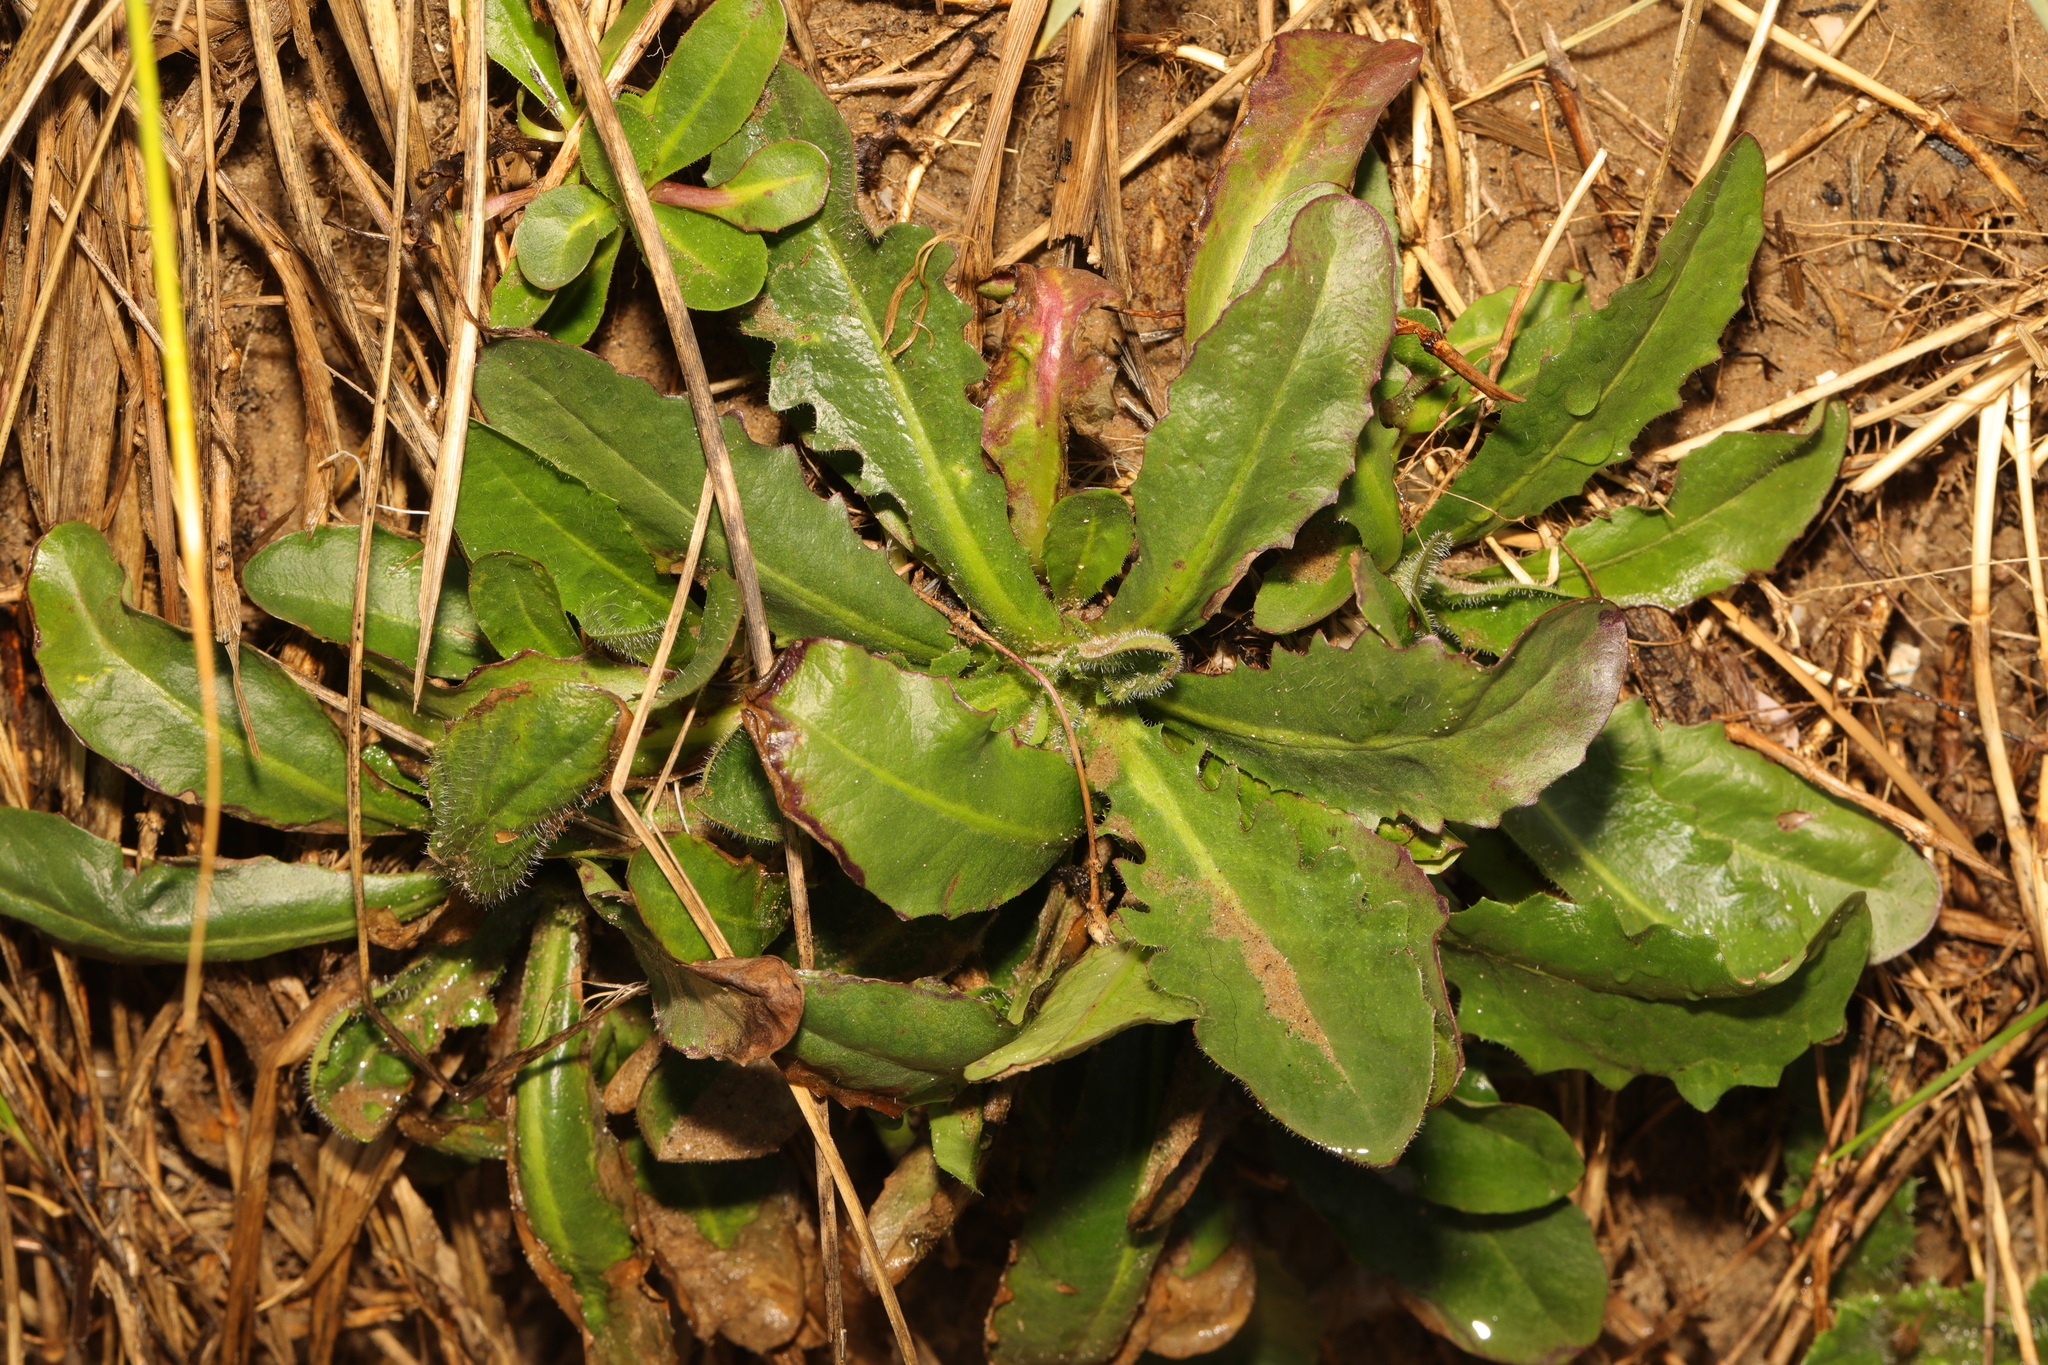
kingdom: Plantae
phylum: Tracheophyta
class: Magnoliopsida
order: Asterales
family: Asteraceae
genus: Hypochaeris
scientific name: Hypochaeris radicata
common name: Flatweed
